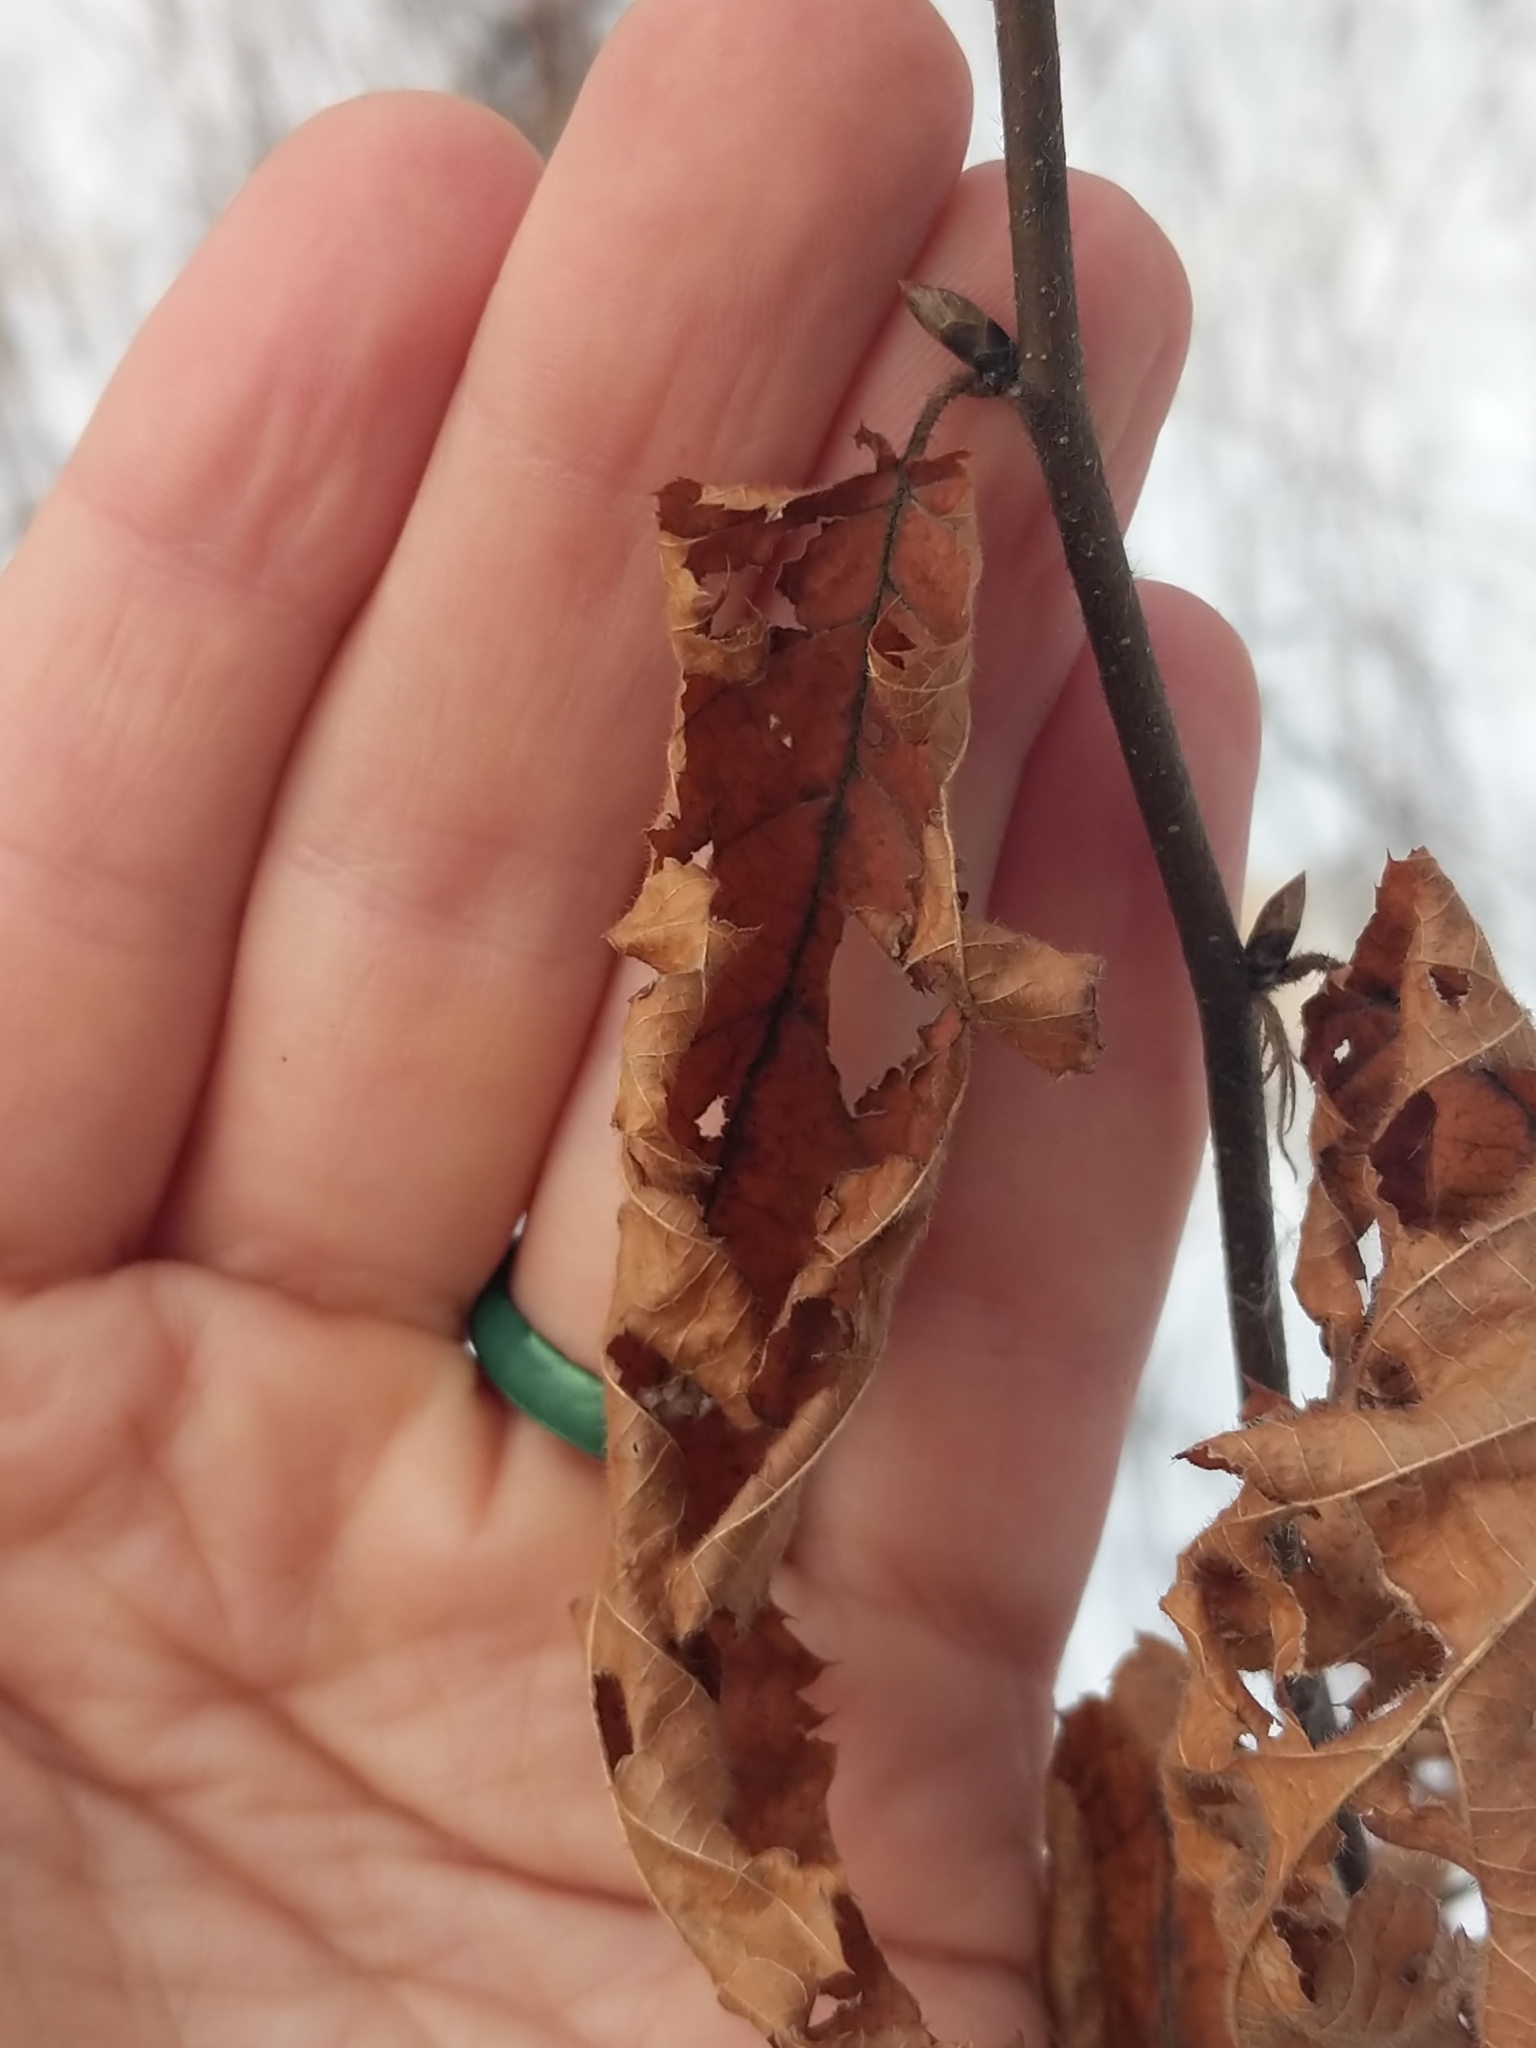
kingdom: Plantae
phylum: Tracheophyta
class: Magnoliopsida
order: Fagales
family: Betulaceae
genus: Ostrya
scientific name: Ostrya virginiana
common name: Ironwood
